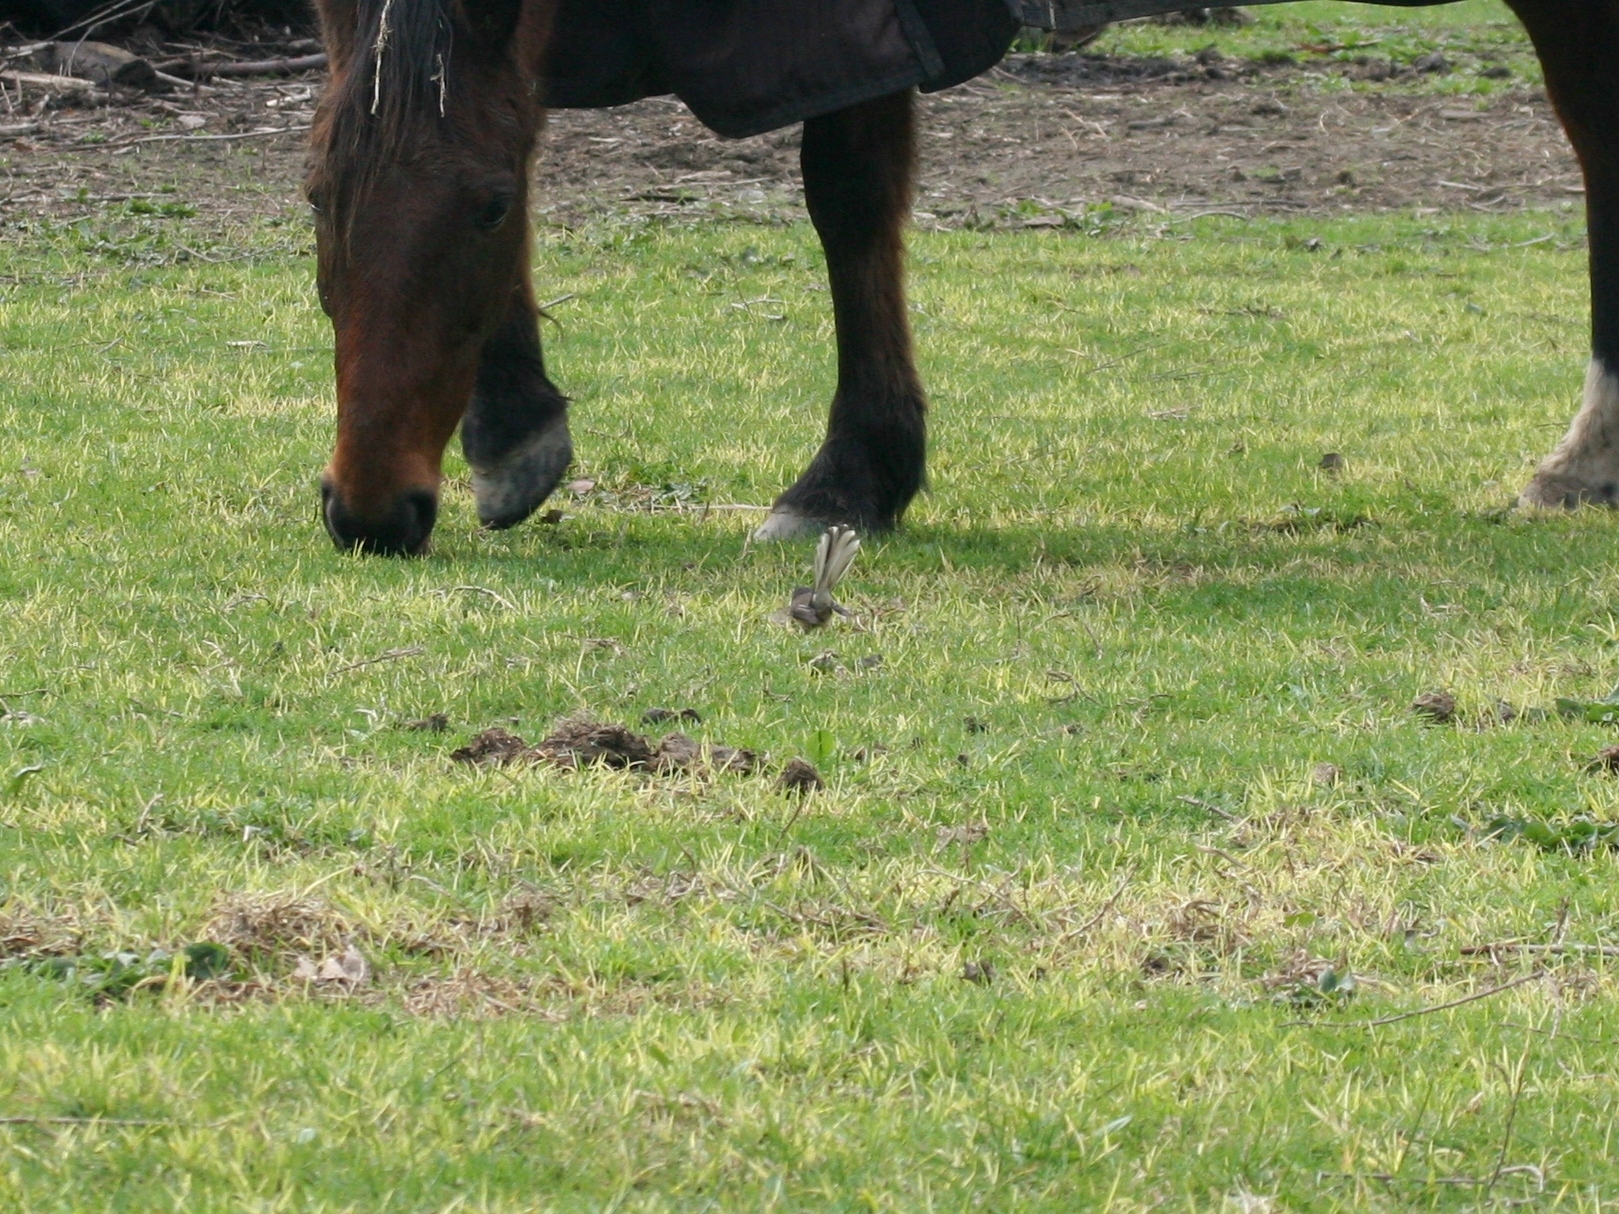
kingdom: Animalia
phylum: Chordata
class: Aves
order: Passeriformes
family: Rhipiduridae
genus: Rhipidura
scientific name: Rhipidura fuliginosa
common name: New zealand fantail
